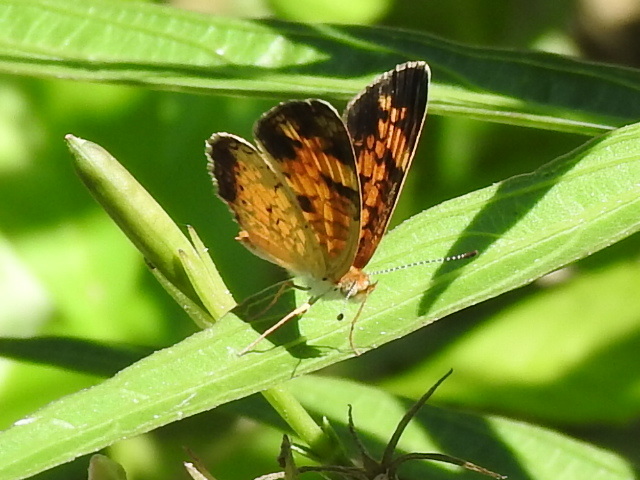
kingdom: Animalia
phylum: Arthropoda
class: Insecta
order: Lepidoptera
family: Nymphalidae
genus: Phyciodes
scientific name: Phyciodes tharos
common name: Pearl crescent
